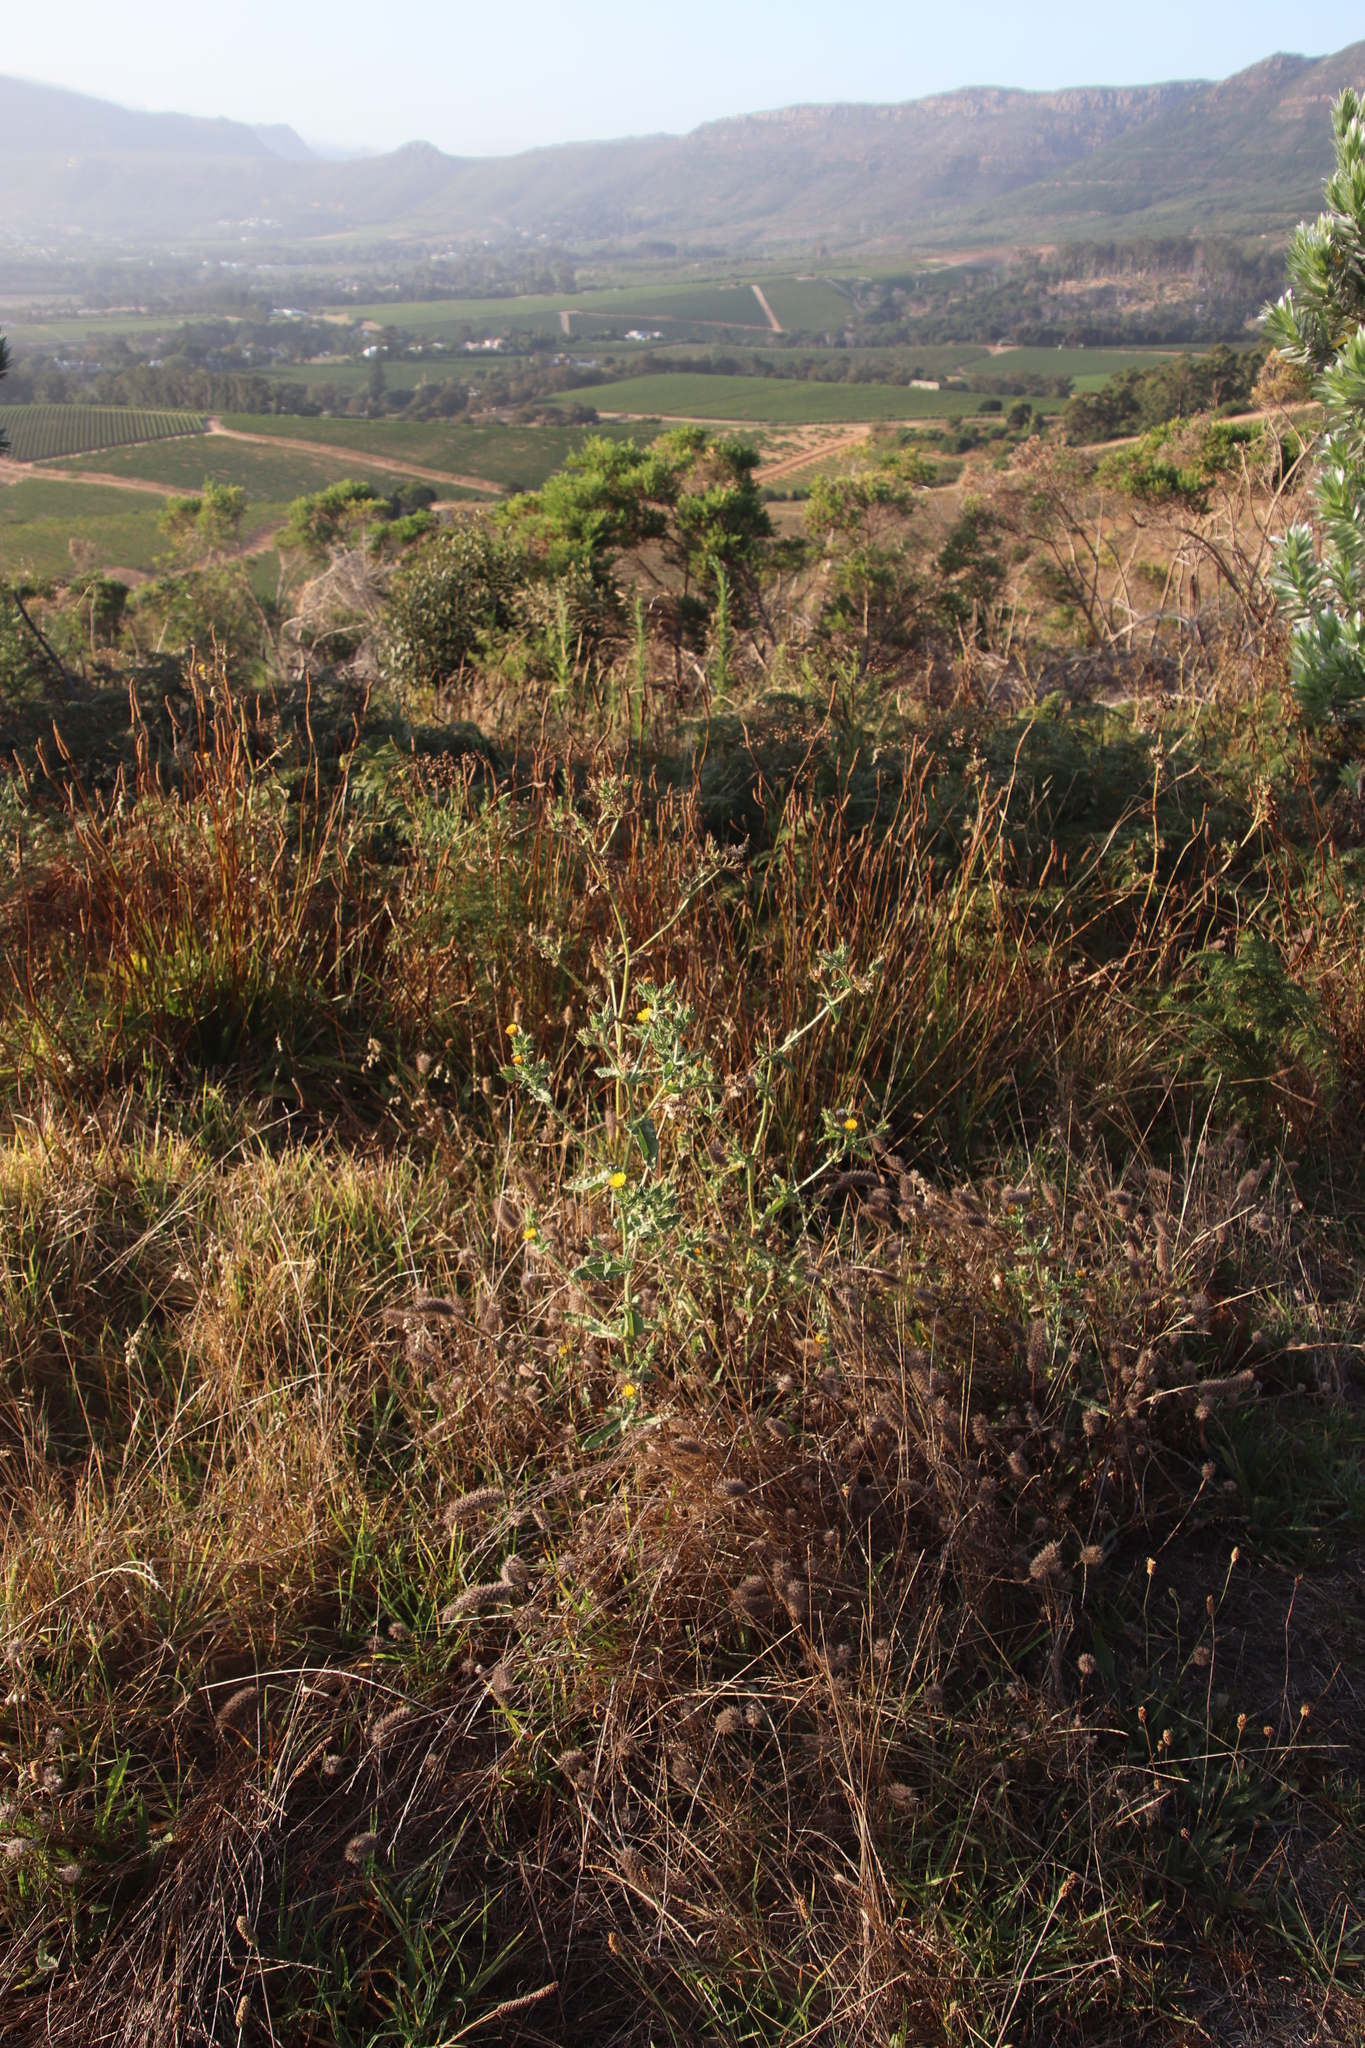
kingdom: Plantae
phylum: Tracheophyta
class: Magnoliopsida
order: Asterales
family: Asteraceae
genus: Helminthotheca
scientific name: Helminthotheca echioides
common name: Ox-tongue
